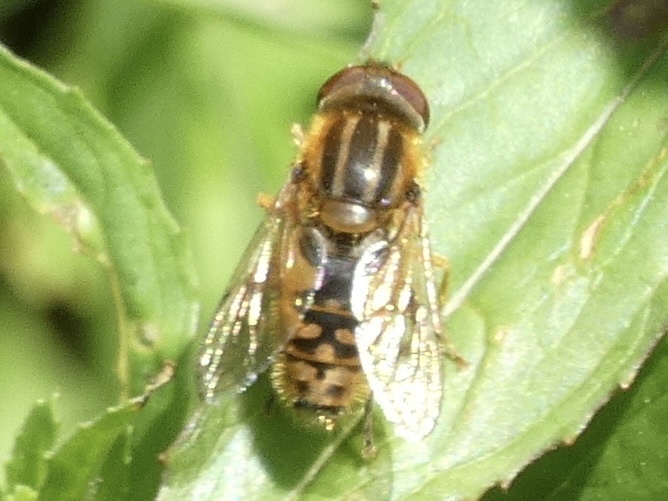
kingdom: Animalia
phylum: Arthropoda
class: Insecta
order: Diptera
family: Syrphidae
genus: Parhelophilus
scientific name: Parhelophilus
